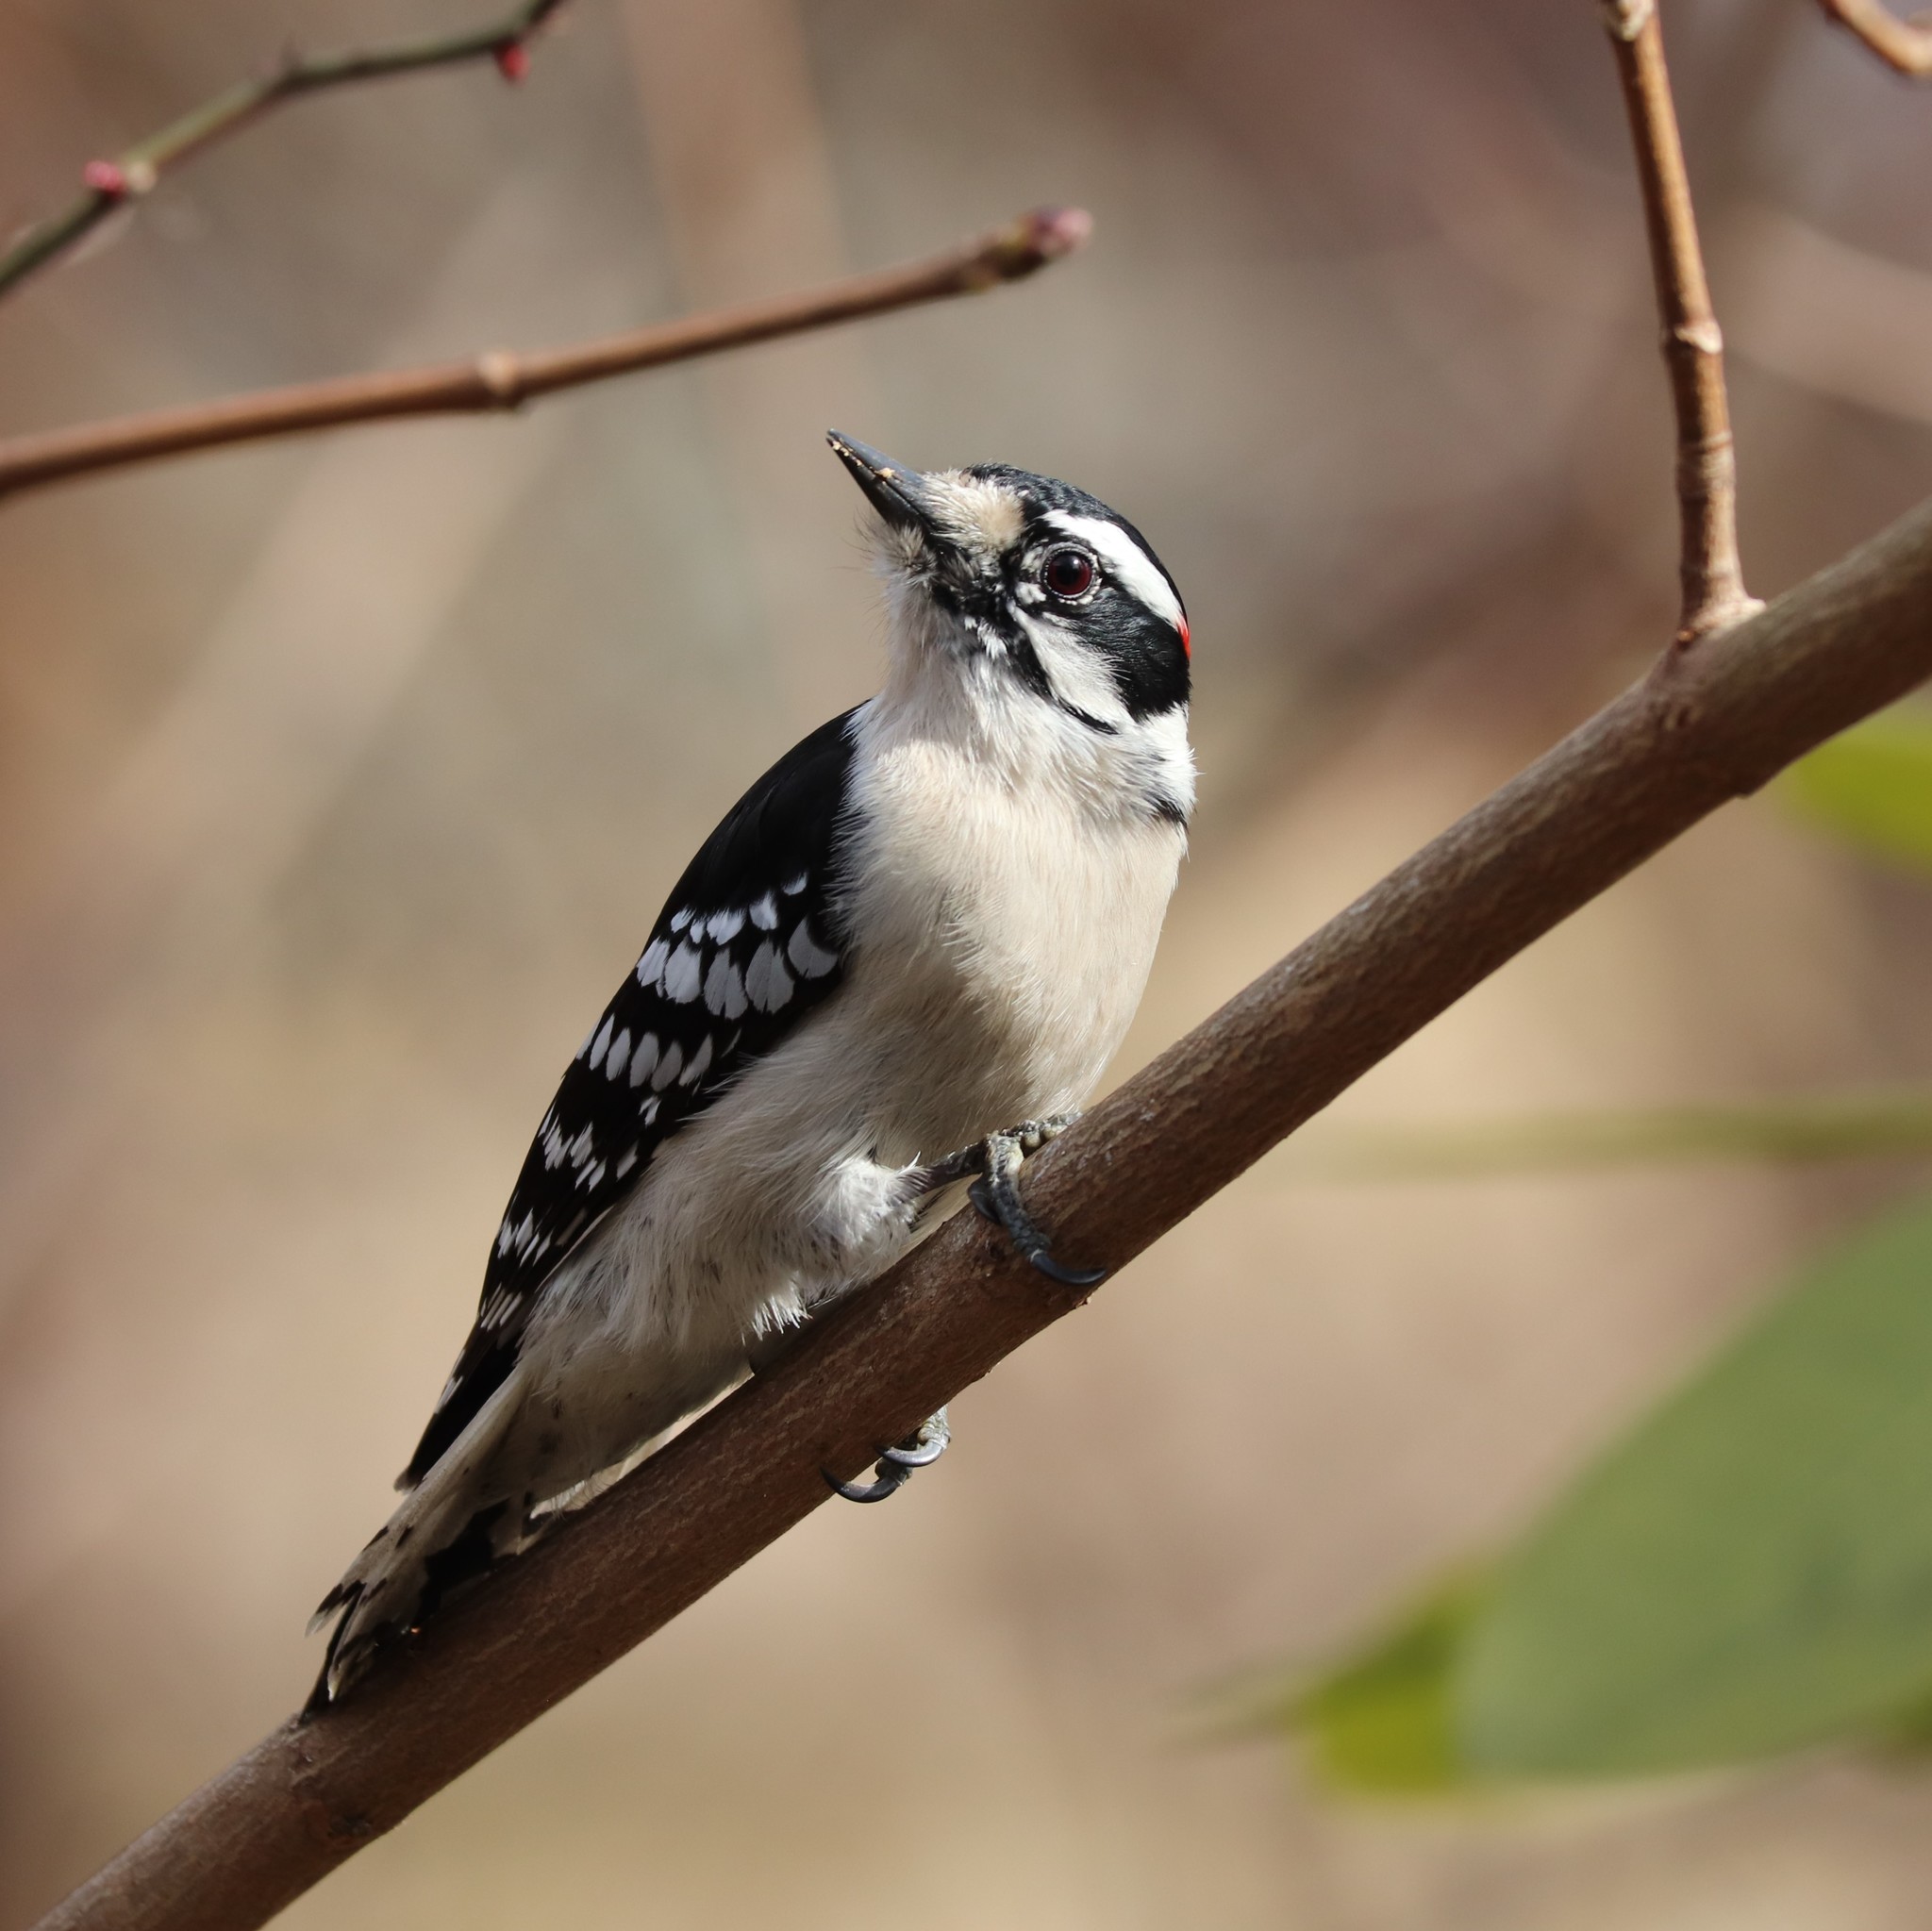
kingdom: Animalia
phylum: Chordata
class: Aves
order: Piciformes
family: Picidae
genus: Dryobates
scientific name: Dryobates pubescens
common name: Downy woodpecker
